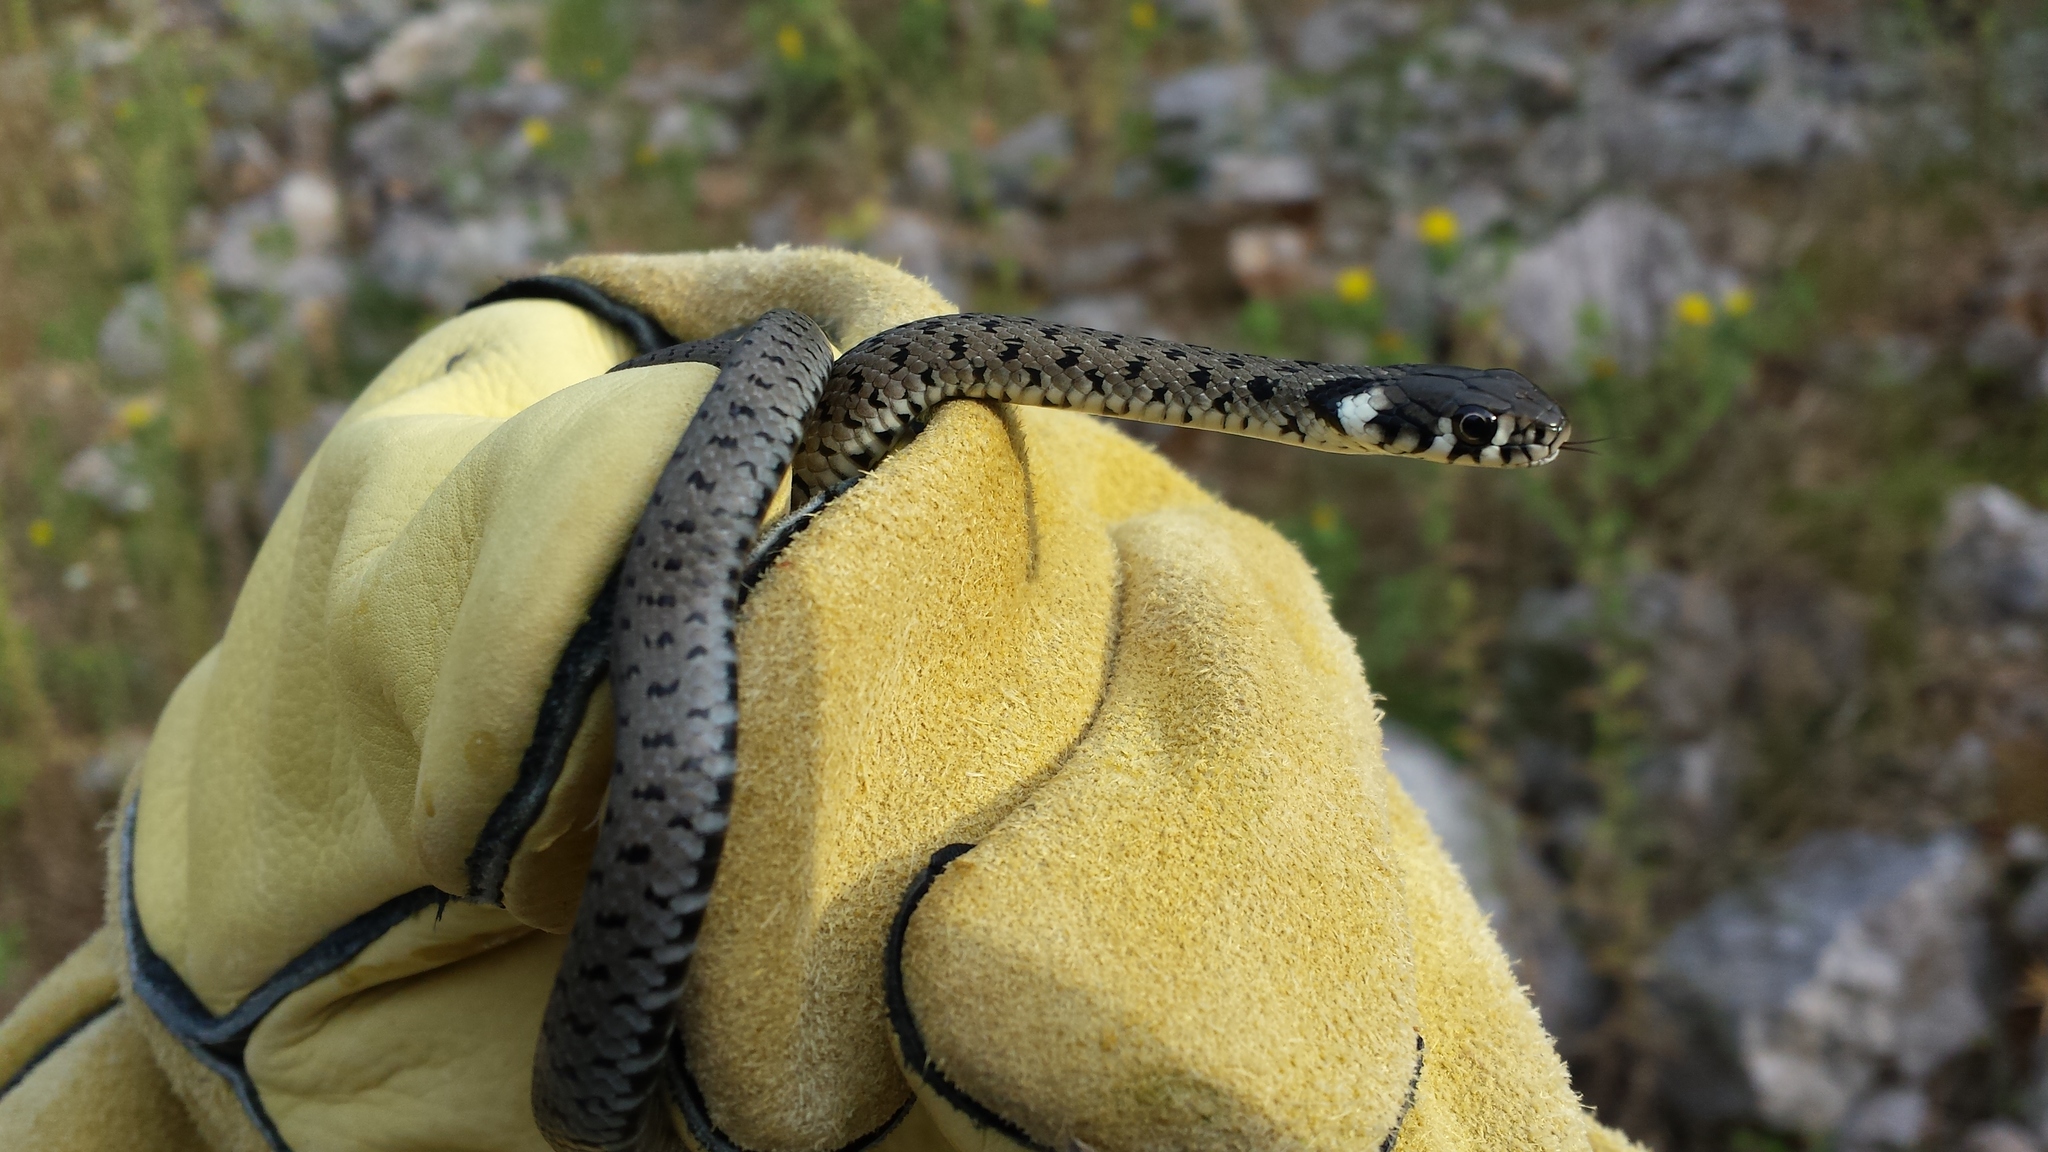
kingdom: Animalia
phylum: Chordata
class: Squamata
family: Colubridae
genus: Natrix
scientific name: Natrix natrix
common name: Grass snake
